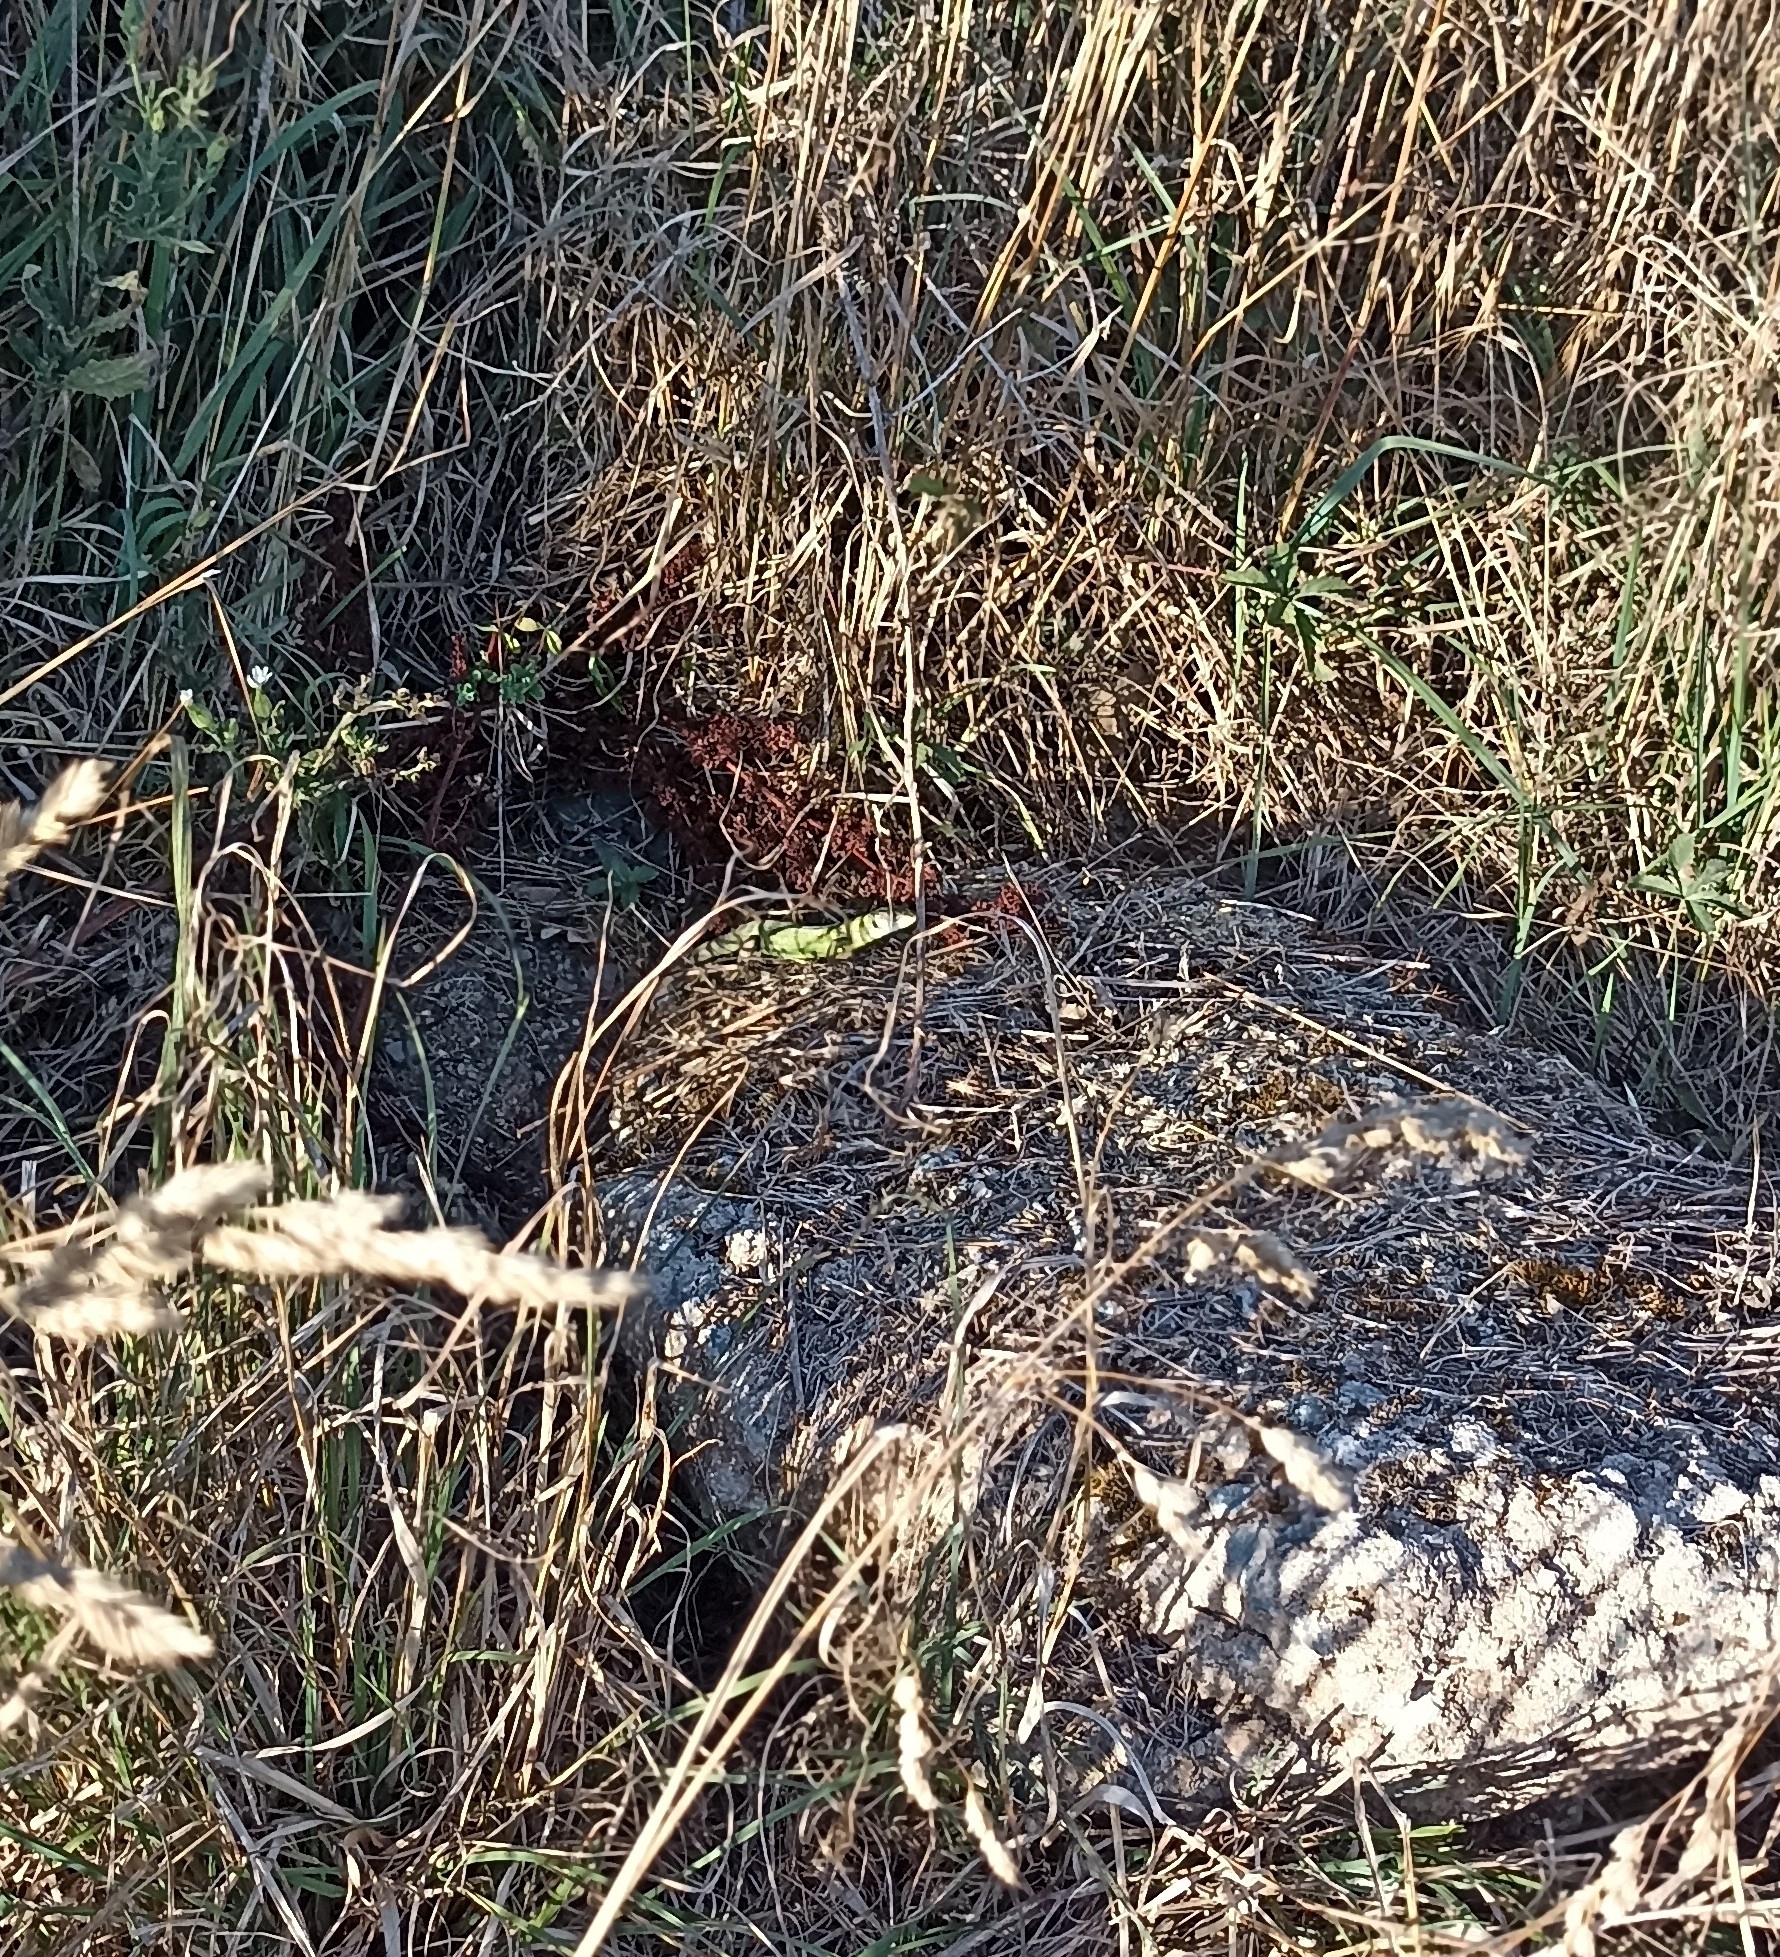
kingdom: Animalia
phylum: Chordata
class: Squamata
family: Lacertidae
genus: Lacerta
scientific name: Lacerta bilineata
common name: Western green lizard
